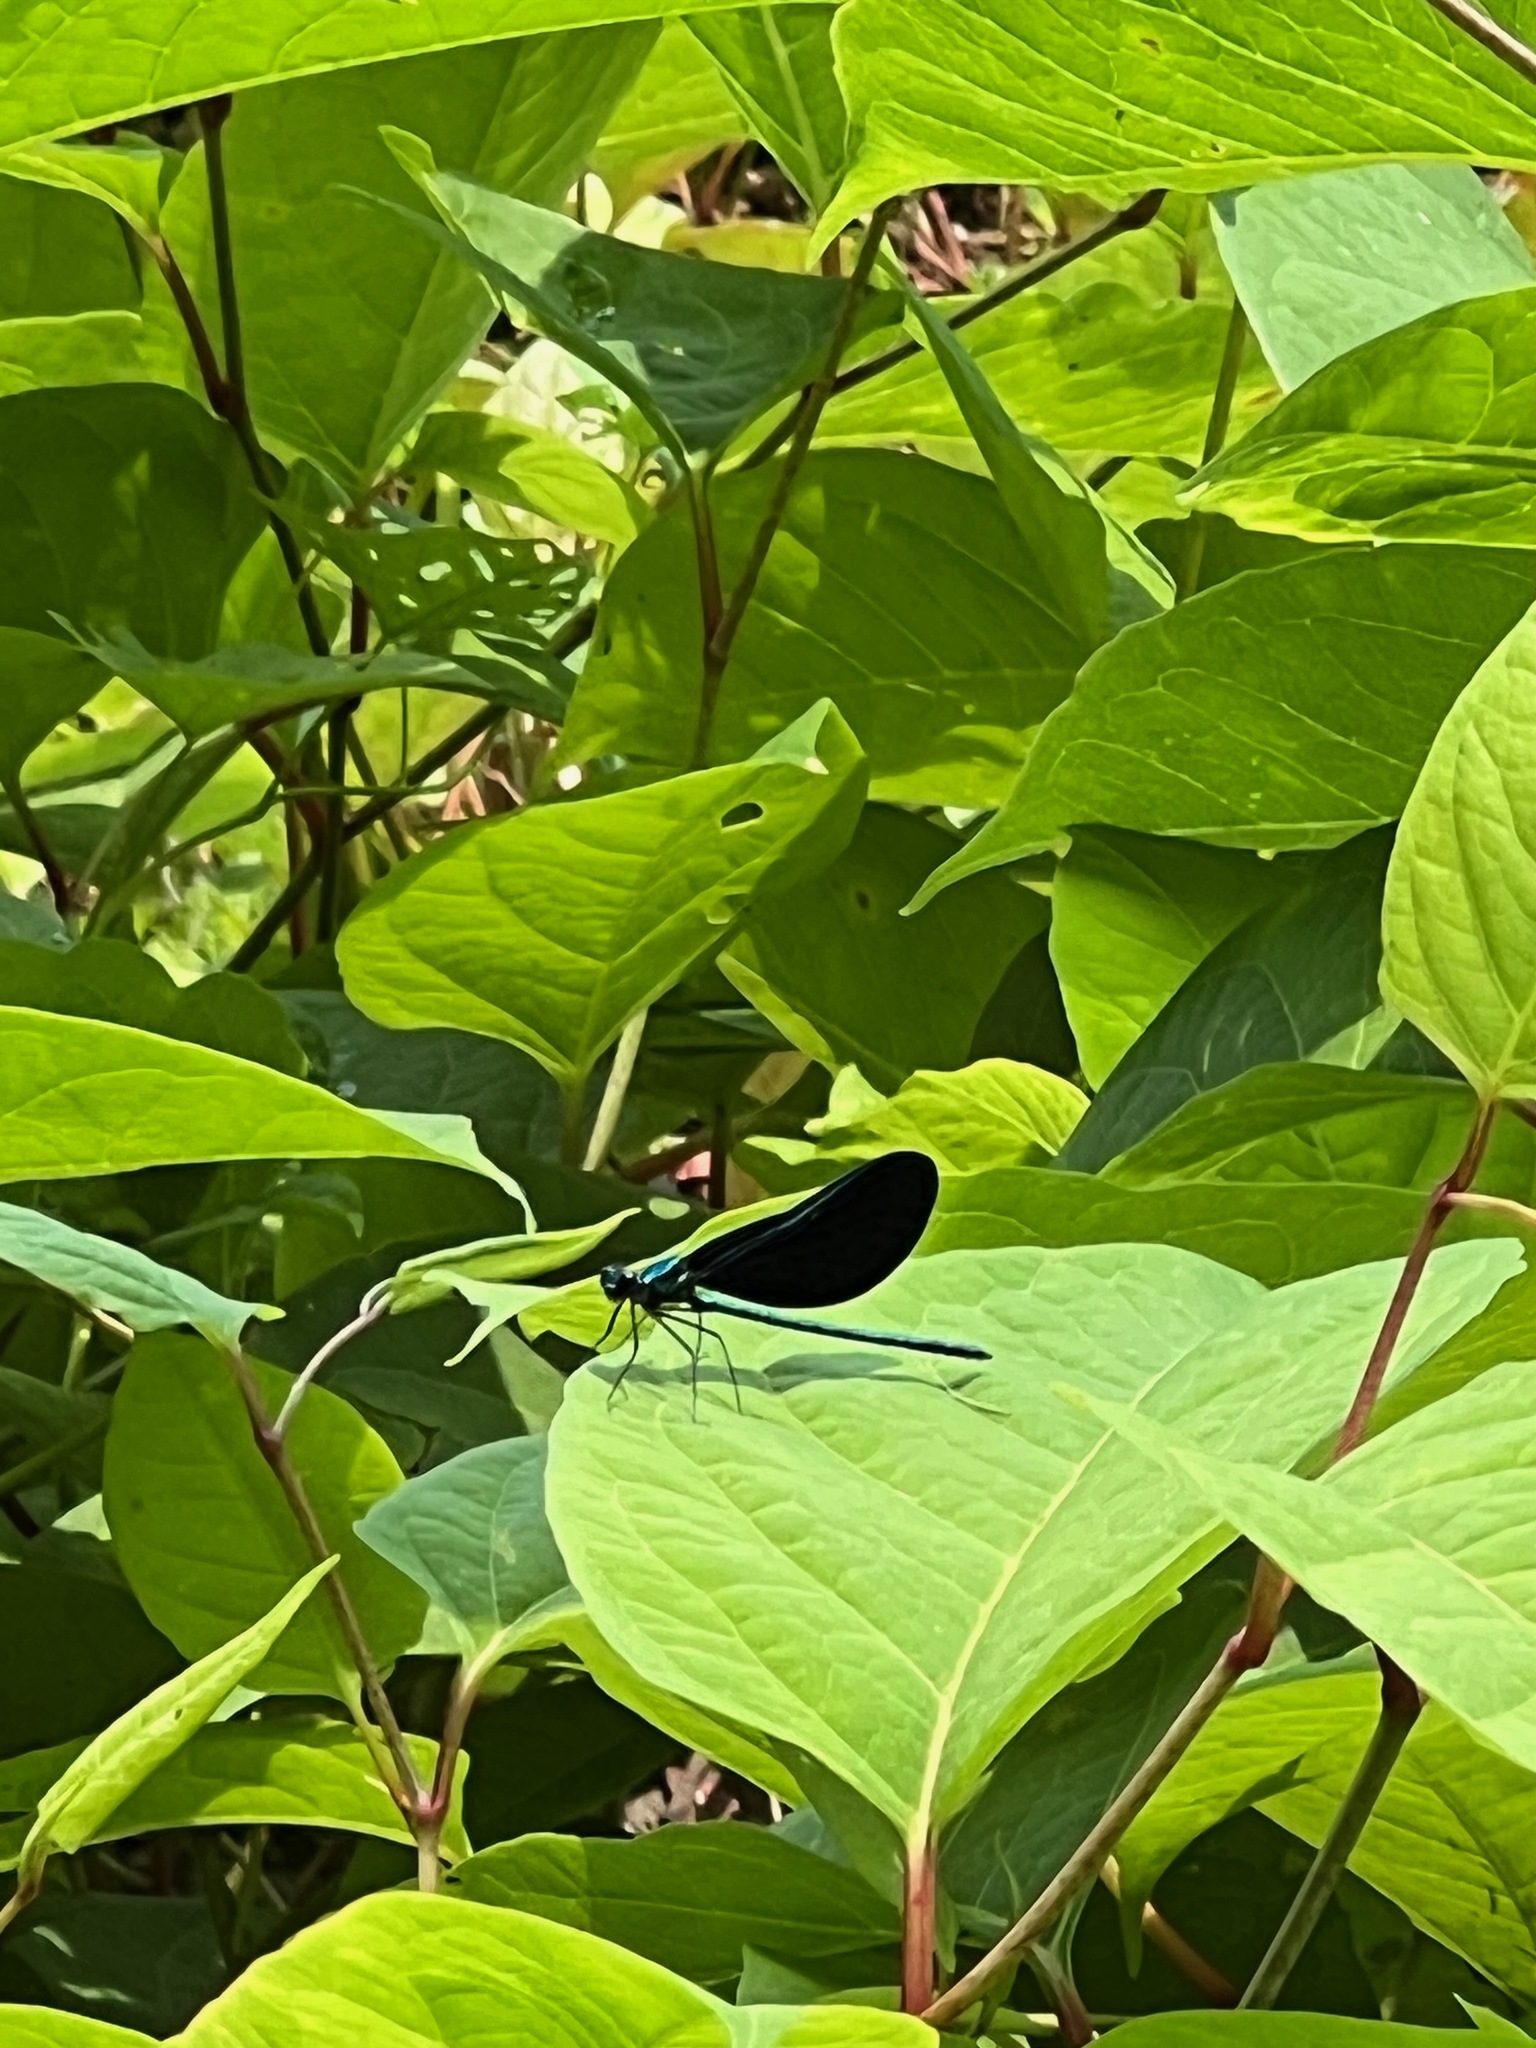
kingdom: Animalia
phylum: Arthropoda
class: Insecta
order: Odonata
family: Calopterygidae
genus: Calopteryx
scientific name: Calopteryx maculata
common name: Ebony jewelwing
